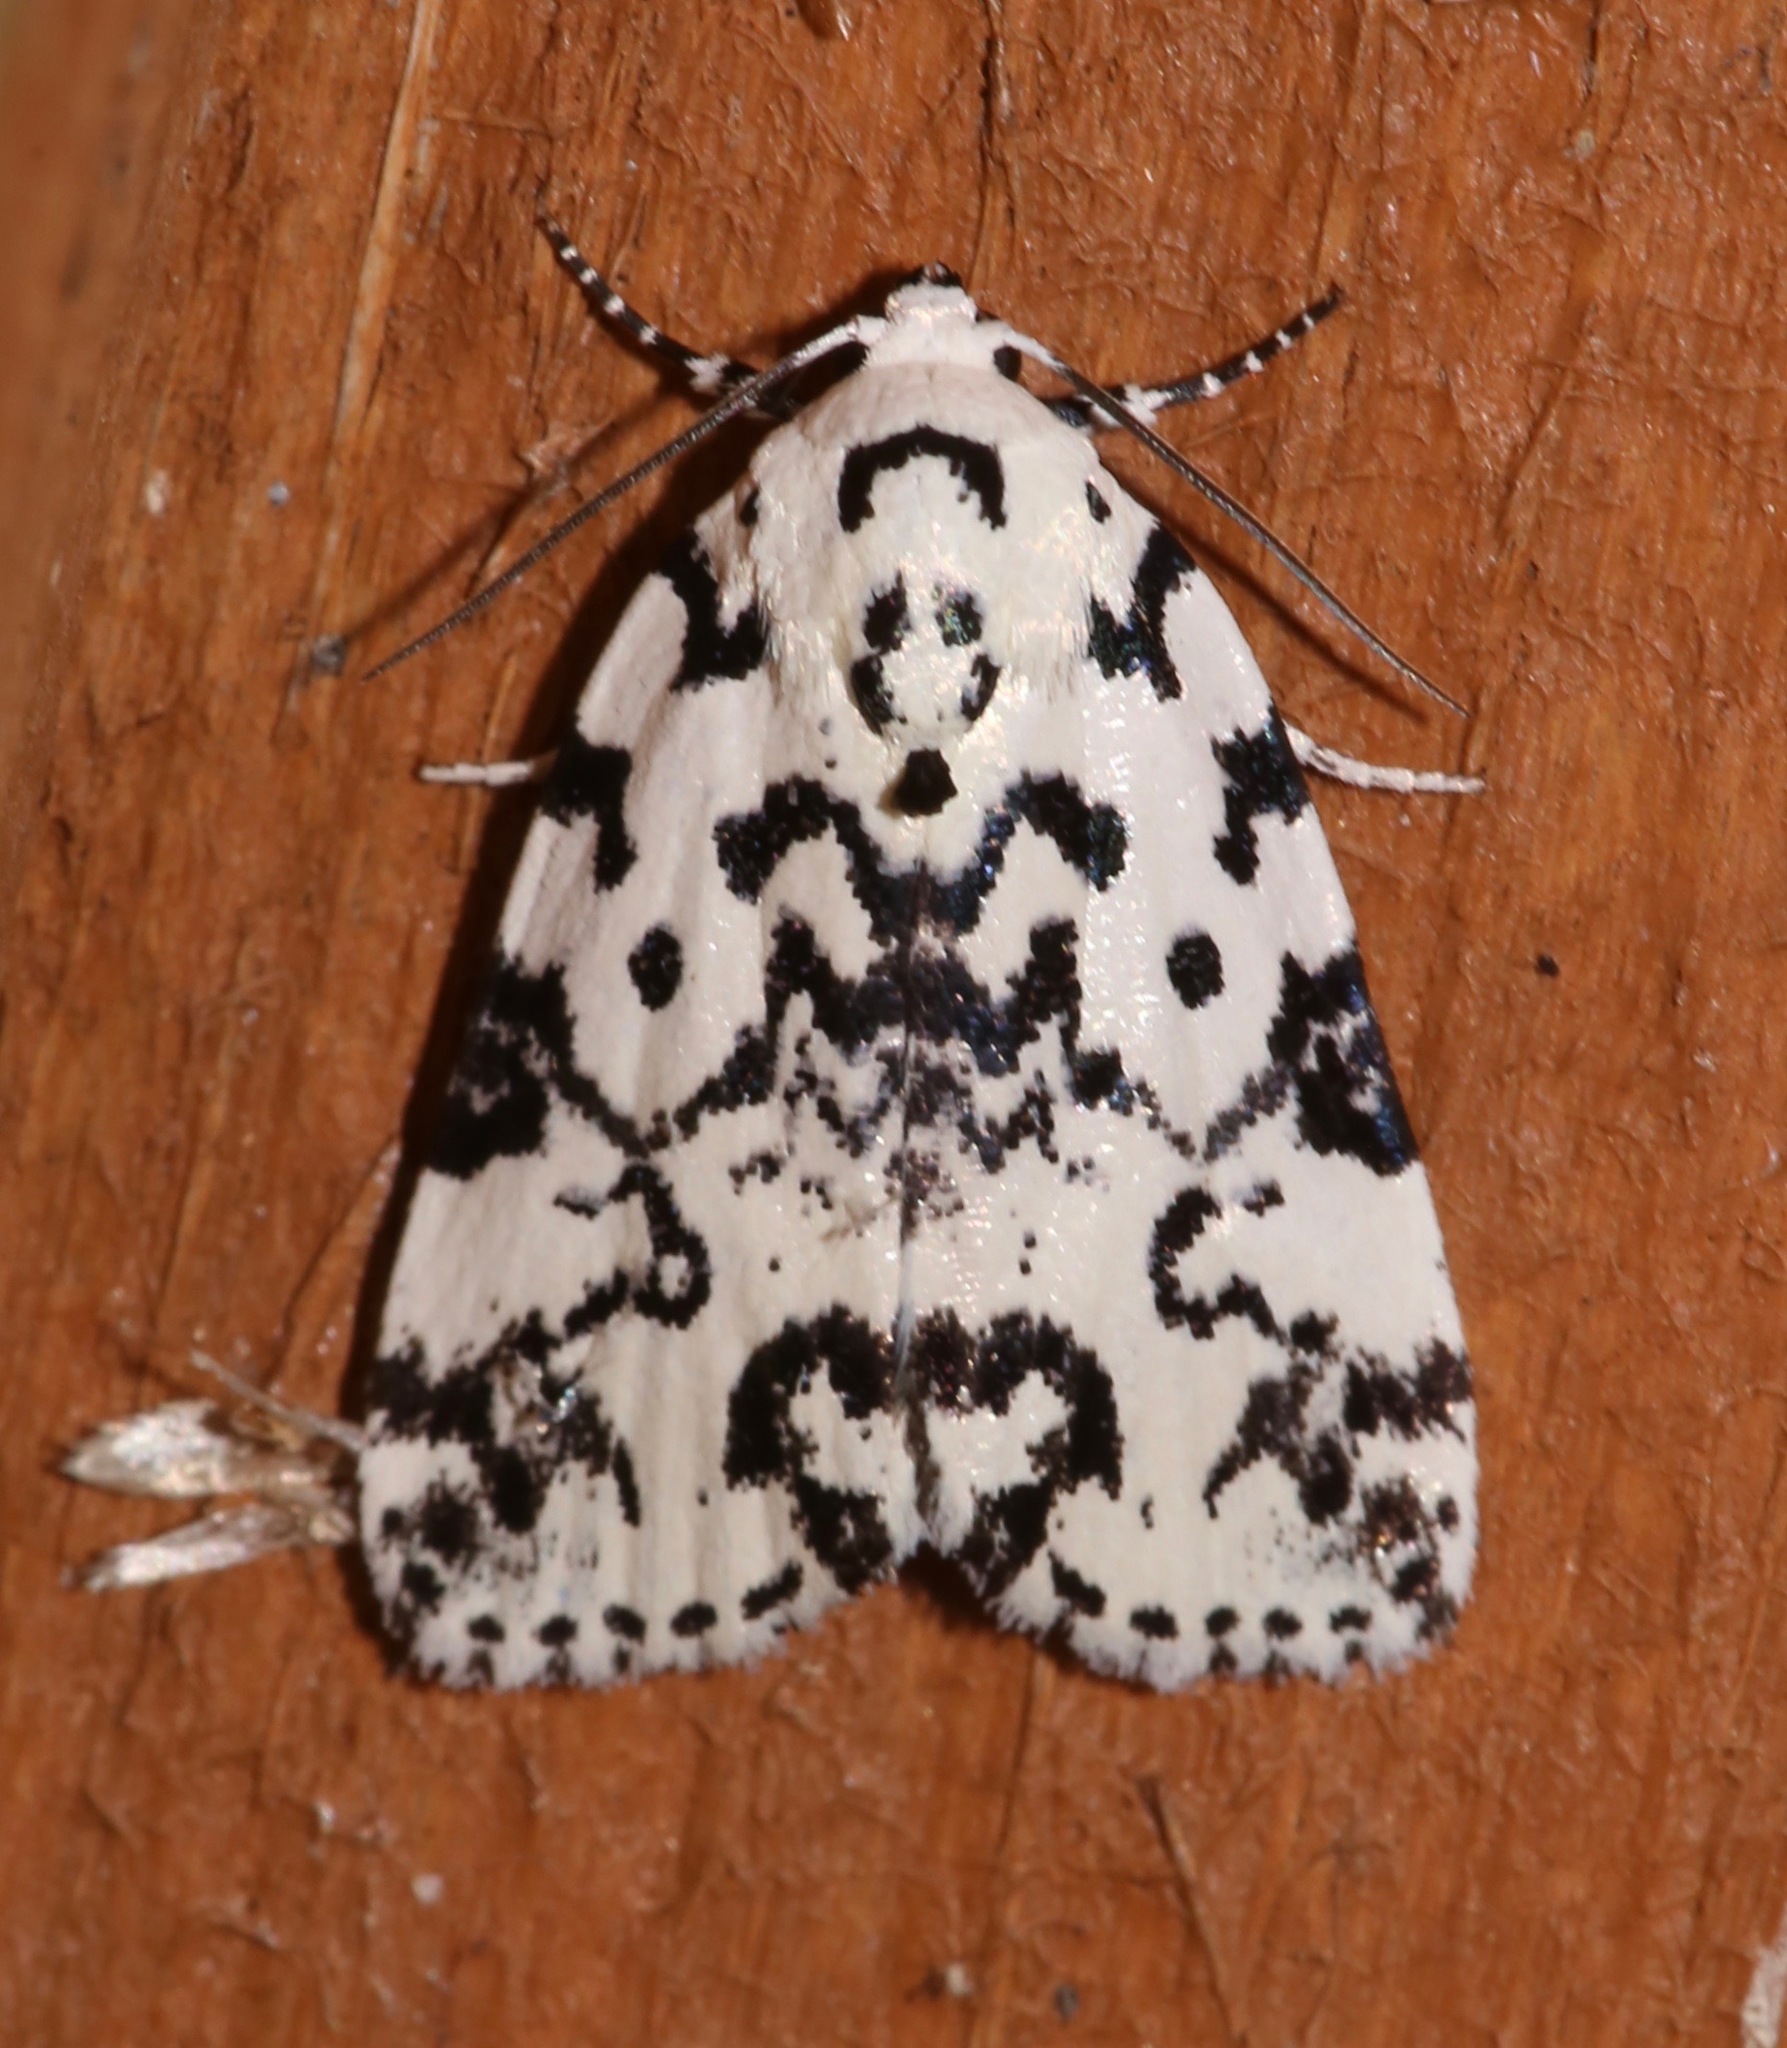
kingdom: Animalia
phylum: Arthropoda
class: Insecta
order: Lepidoptera
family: Noctuidae
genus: Polygrammate
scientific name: Polygrammate hebraeicum
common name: Hebrew moth
